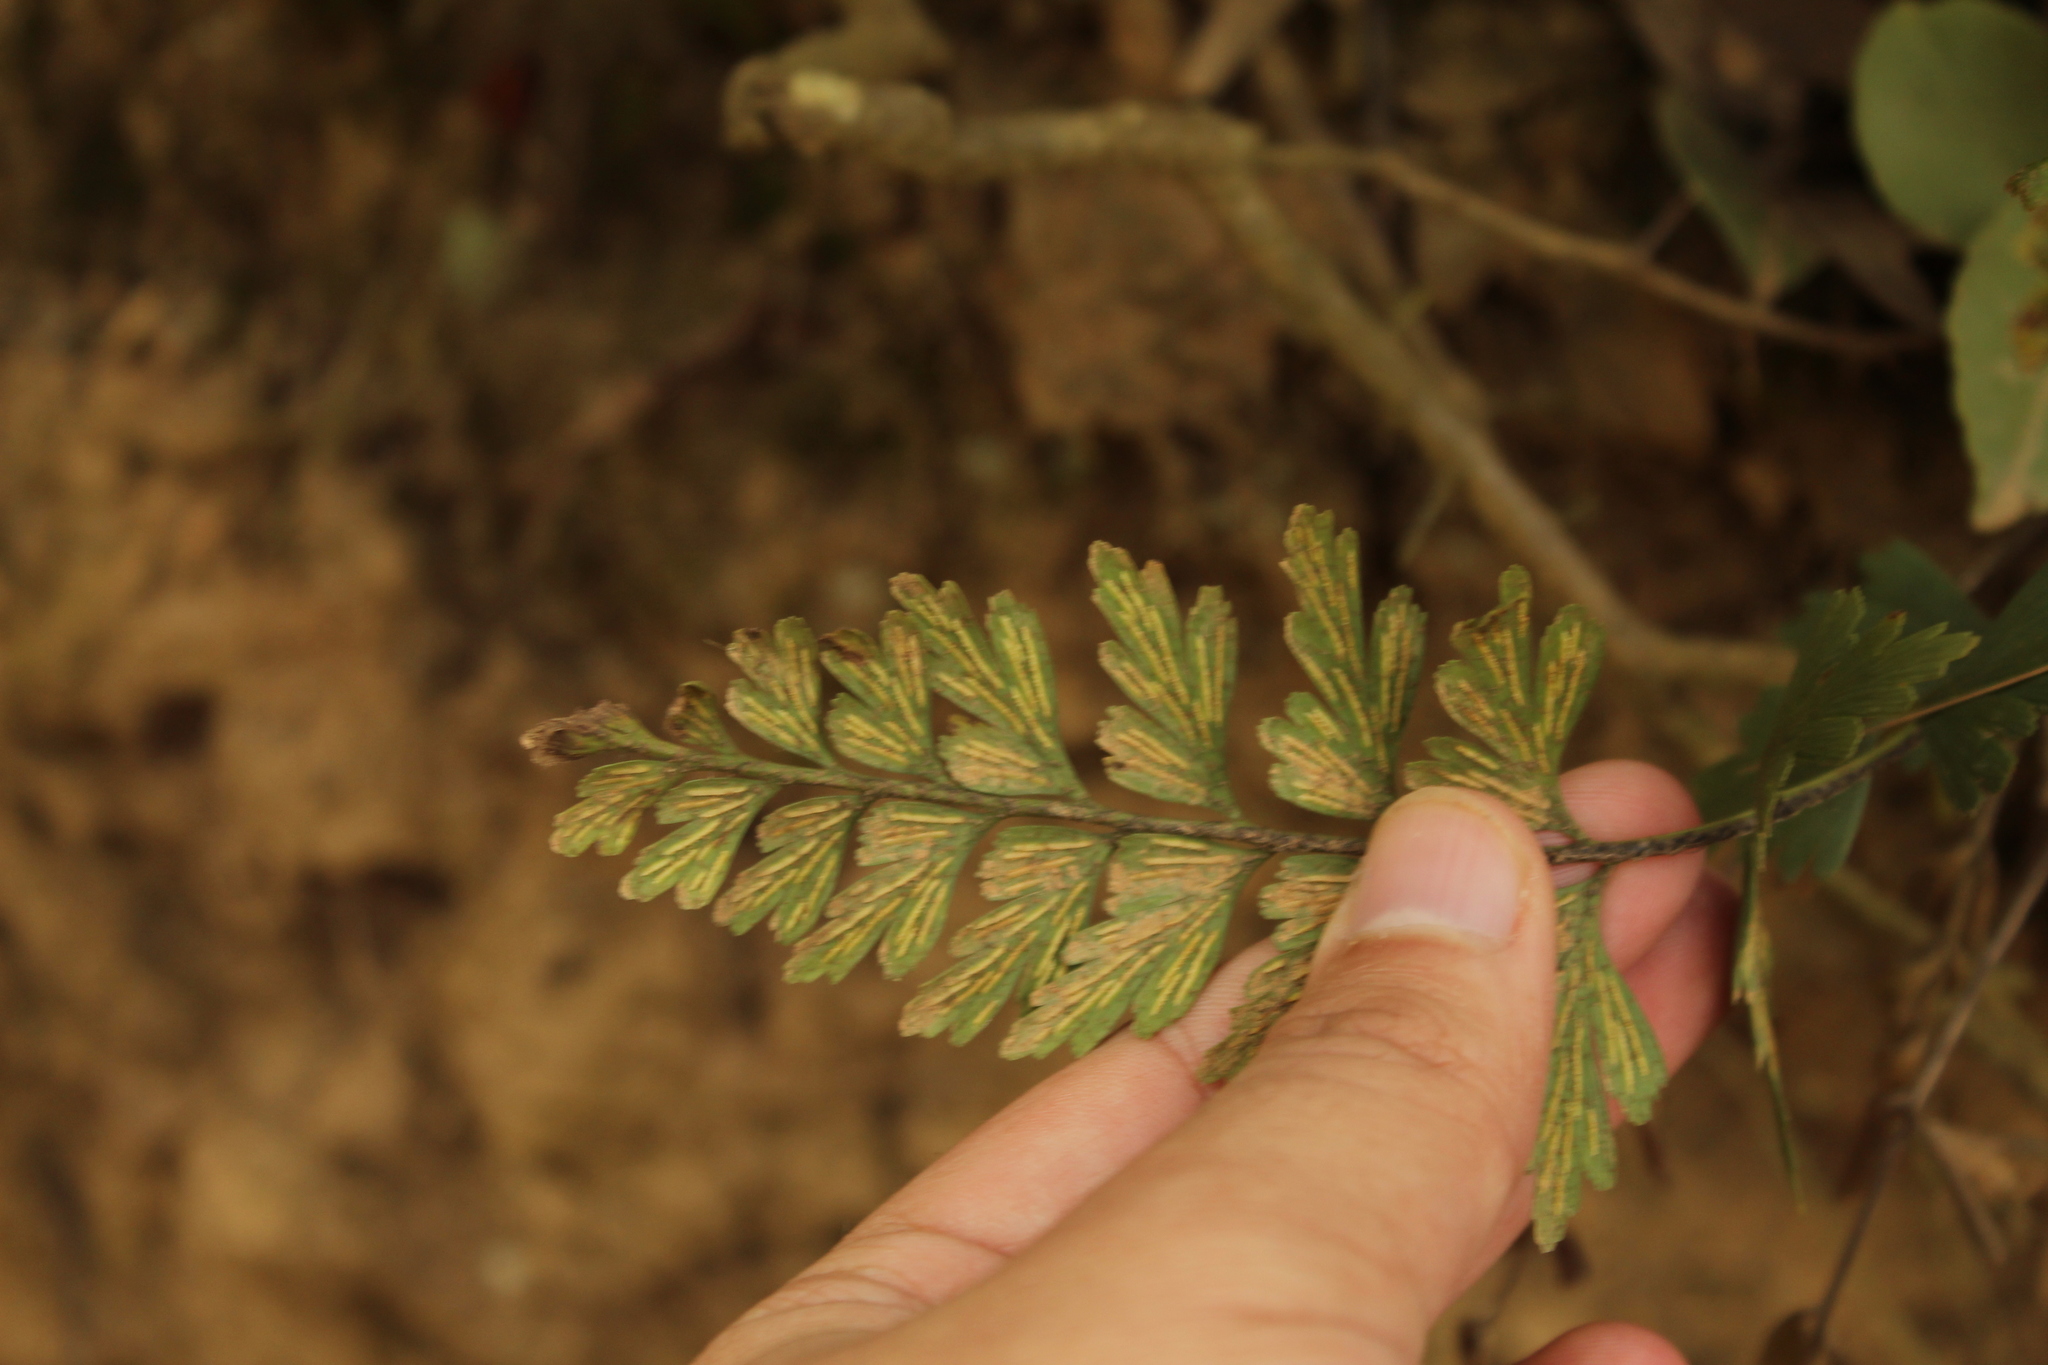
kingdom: Plantae
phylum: Tracheophyta
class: Polypodiopsida
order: Polypodiales
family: Aspleniaceae
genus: Asplenium
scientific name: Asplenium praemorsum
